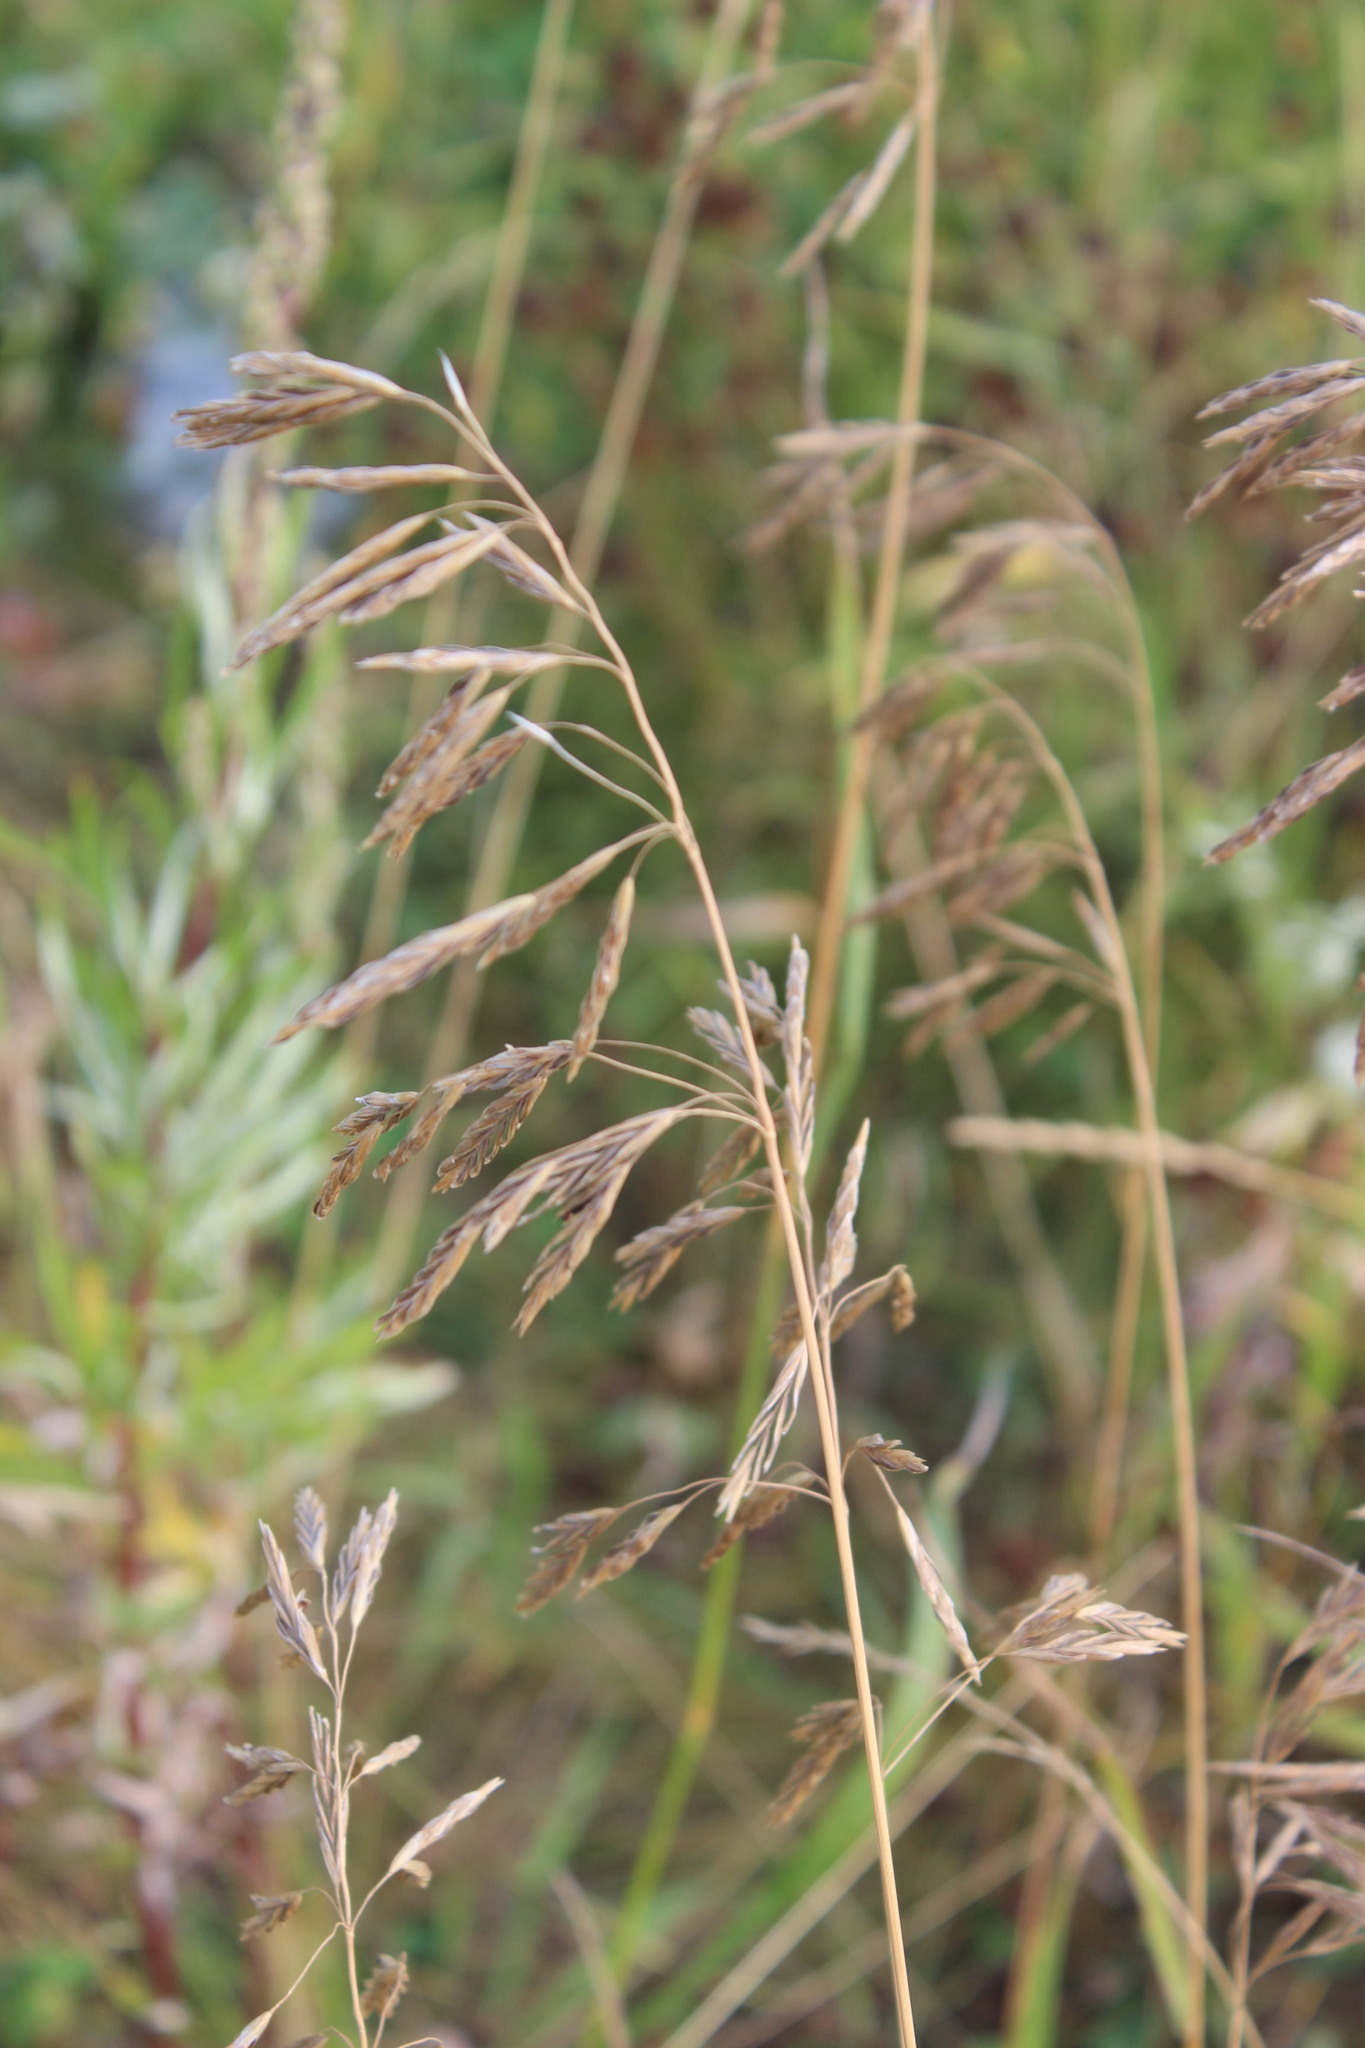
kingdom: Plantae
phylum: Tracheophyta
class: Liliopsida
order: Poales
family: Poaceae
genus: Bromus
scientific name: Bromus inermis
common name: Smooth brome
